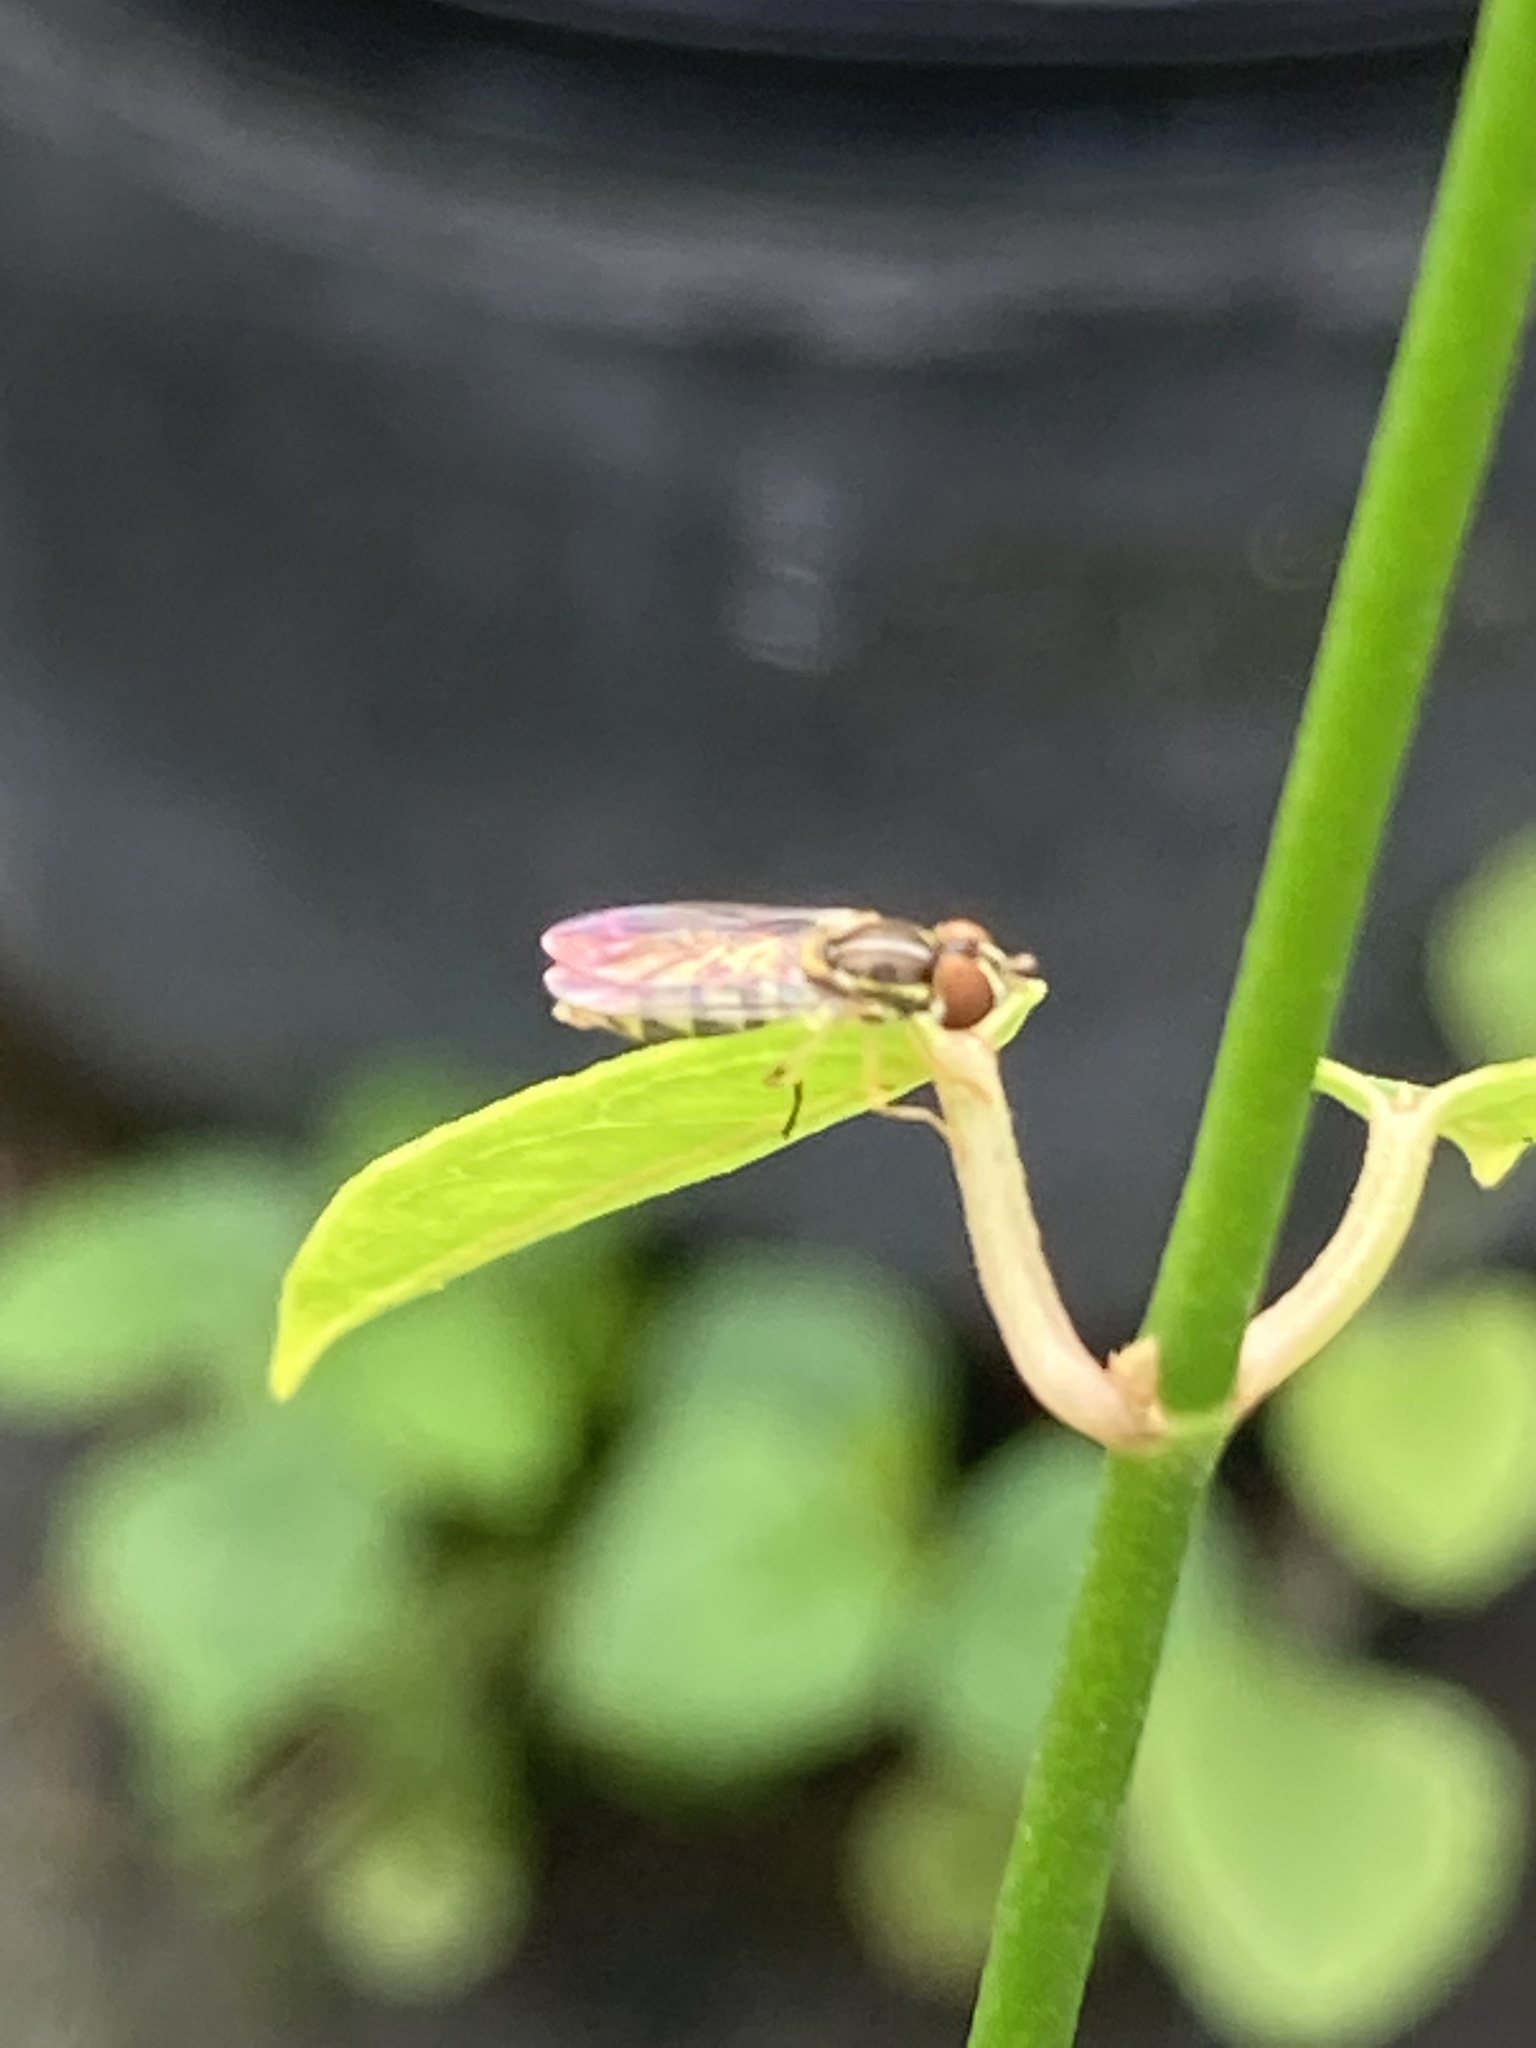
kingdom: Animalia
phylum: Arthropoda
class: Insecta
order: Diptera
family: Syrphidae
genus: Toxomerus
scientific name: Toxomerus floralis
